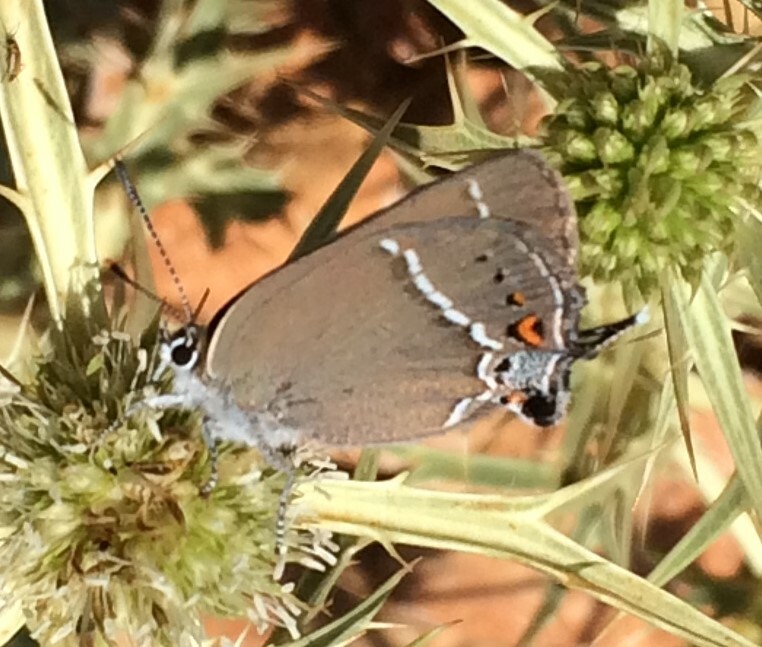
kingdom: Animalia
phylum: Arthropoda
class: Insecta
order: Lepidoptera
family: Lycaenidae
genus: Tuttiola
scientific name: Tuttiola spini
